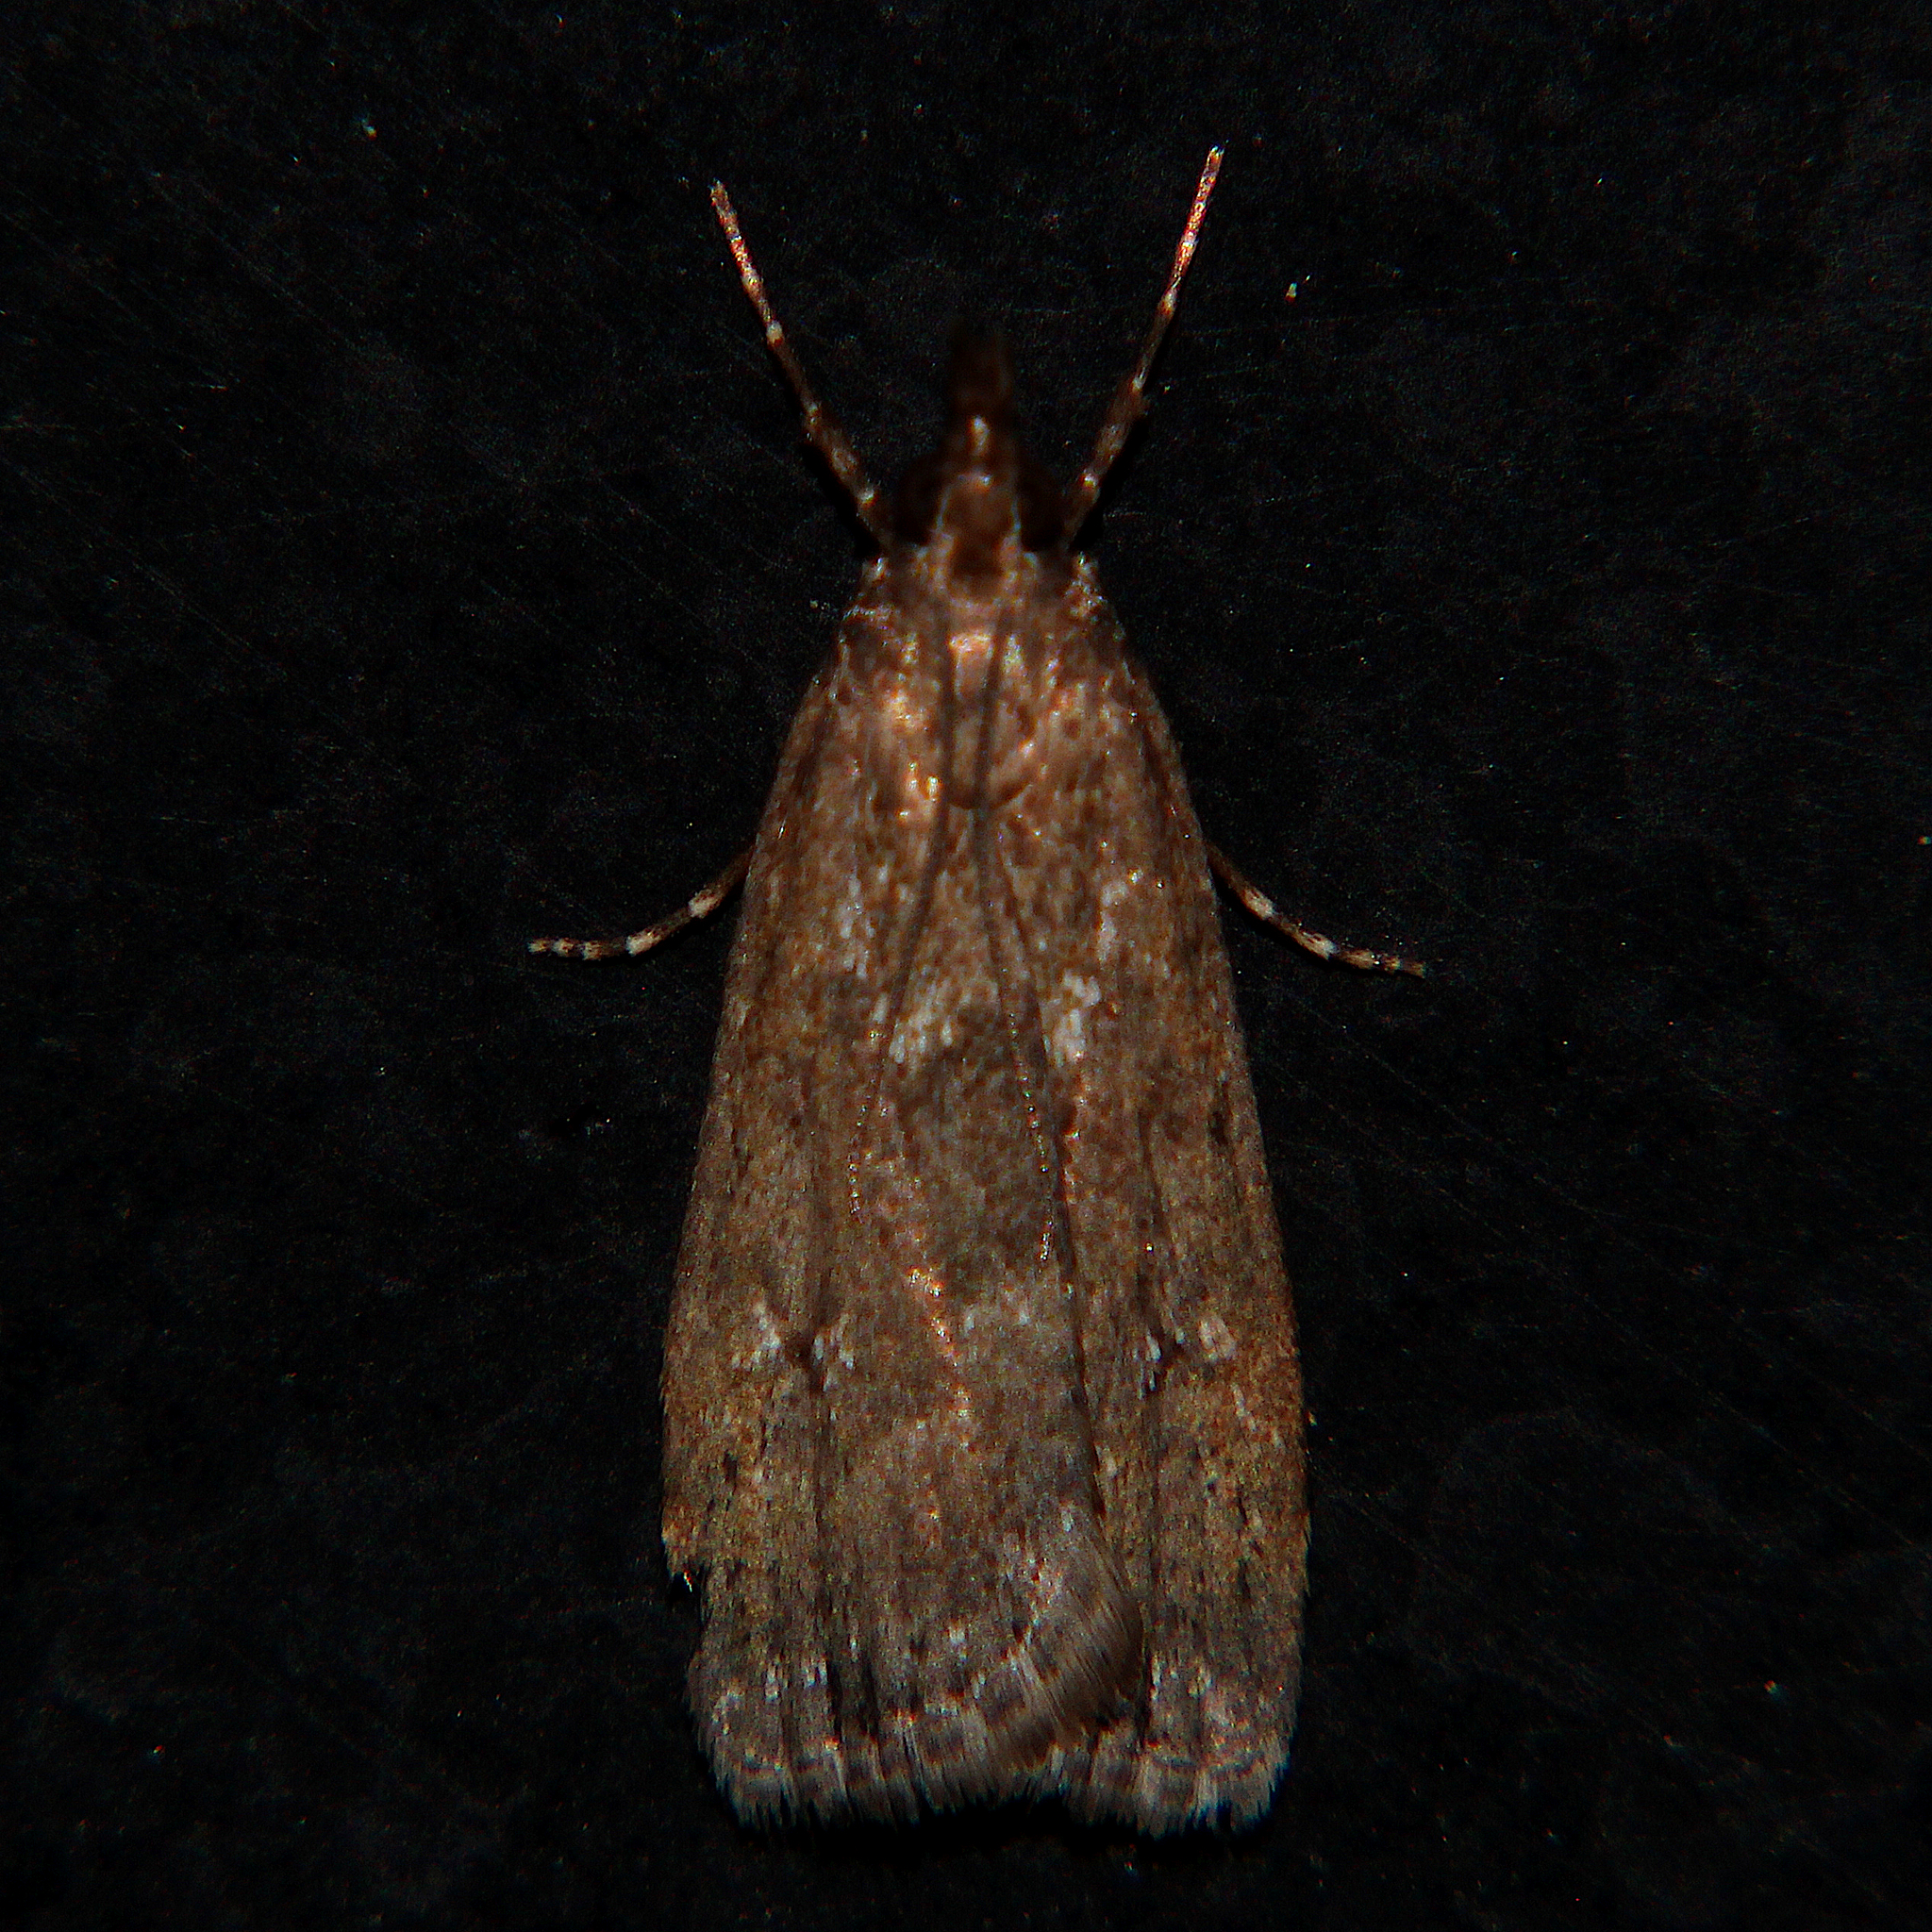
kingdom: Animalia
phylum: Arthropoda
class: Insecta
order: Lepidoptera
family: Crambidae
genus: Eudonia
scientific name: Eudonia dochmia
